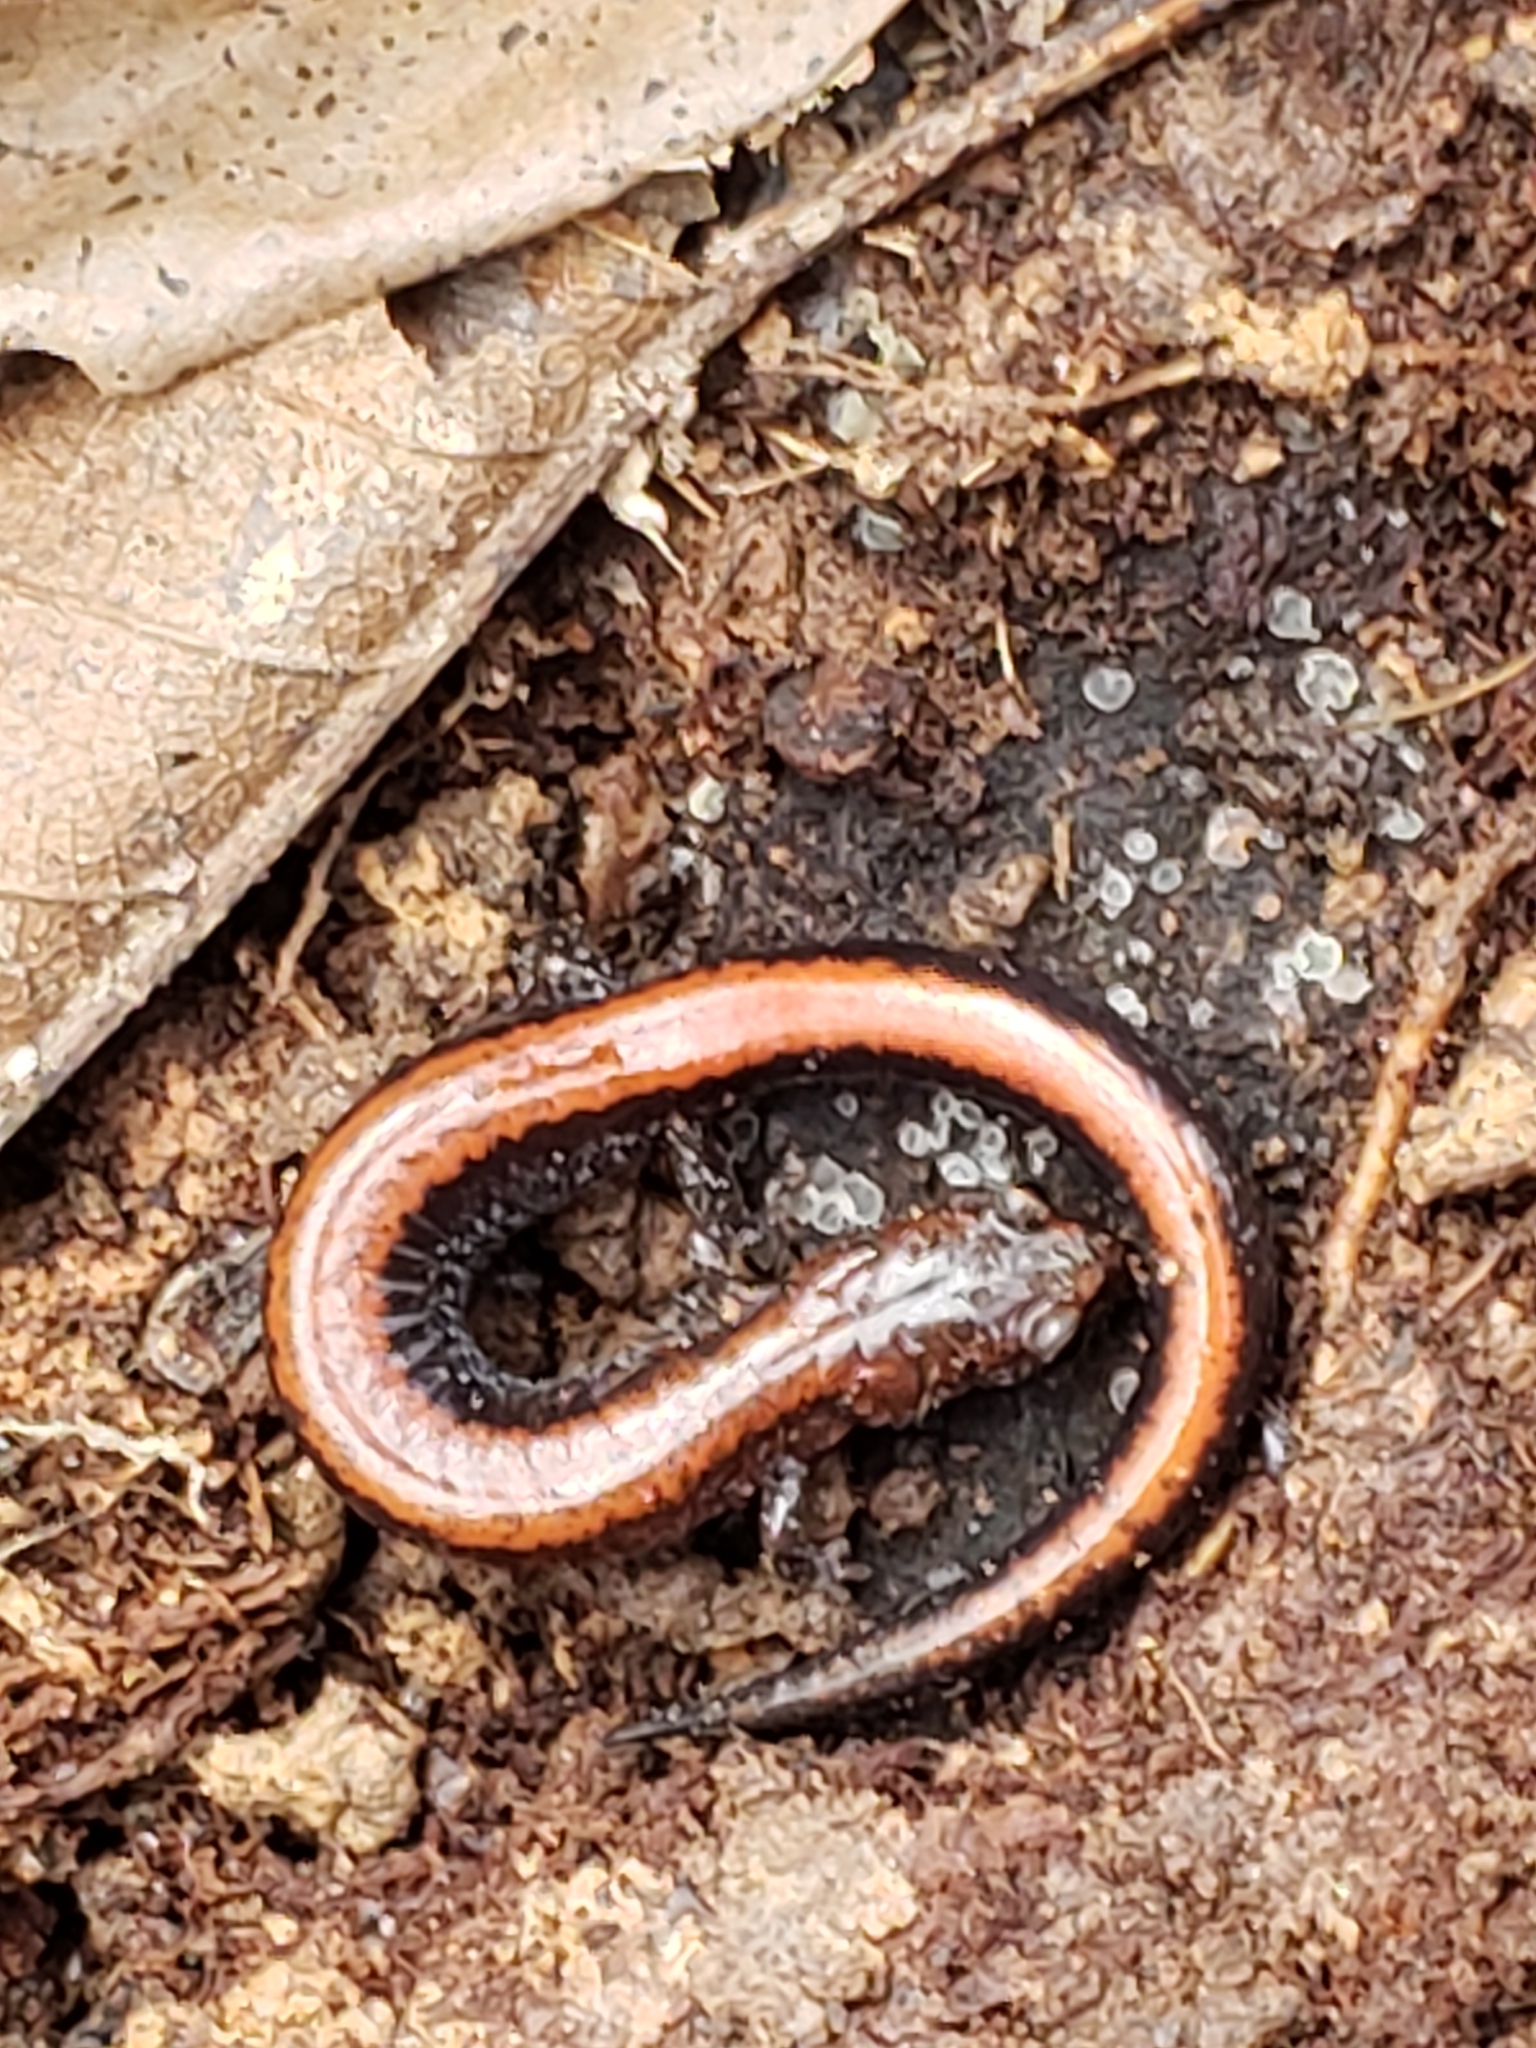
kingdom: Animalia
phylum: Chordata
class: Amphibia
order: Caudata
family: Plethodontidae
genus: Plethodon
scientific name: Plethodon cinereus
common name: Redback salamander
